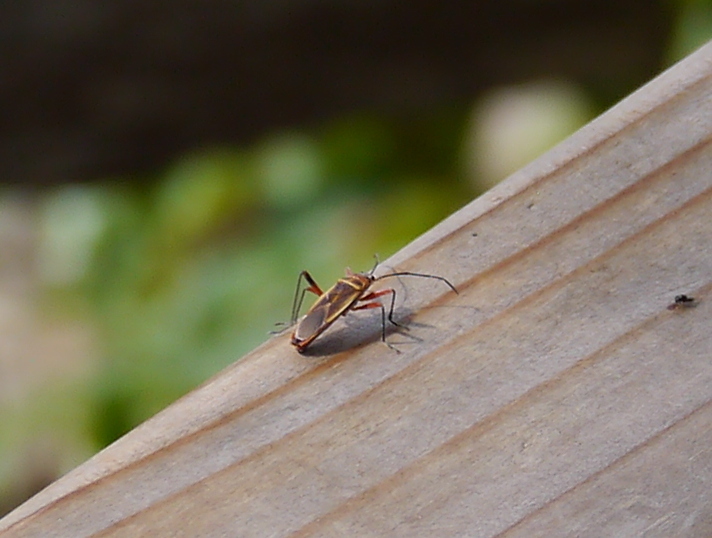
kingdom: Animalia
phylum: Arthropoda
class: Insecta
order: Hemiptera
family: Largidae
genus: Stenomacra
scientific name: Stenomacra marginella
